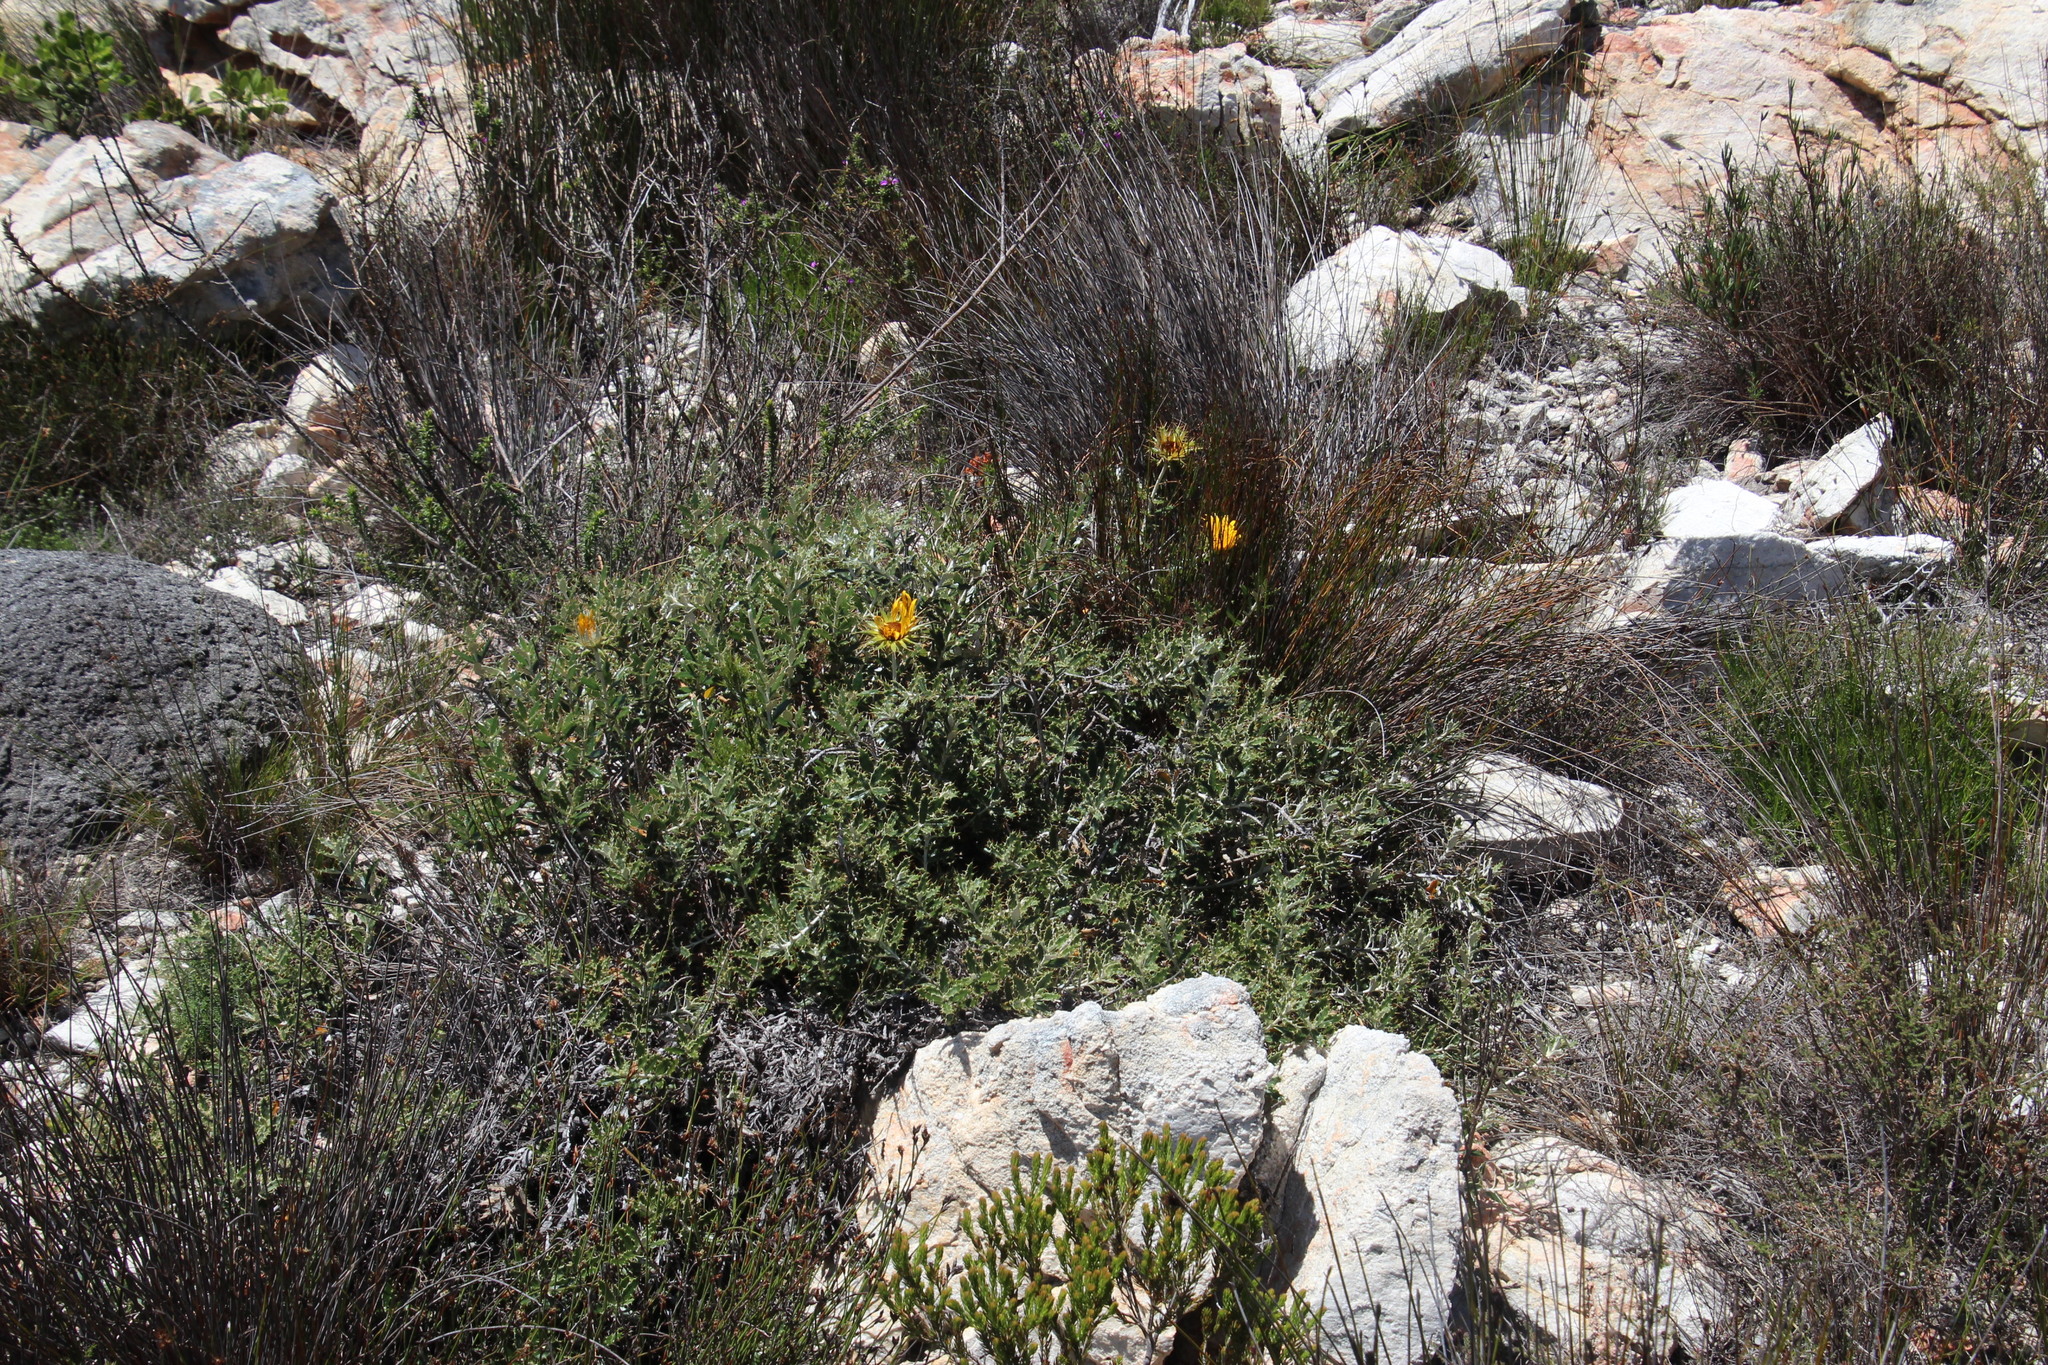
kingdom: Plantae
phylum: Tracheophyta
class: Magnoliopsida
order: Asterales
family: Asteraceae
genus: Berkheya
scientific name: Berkheya barbata
